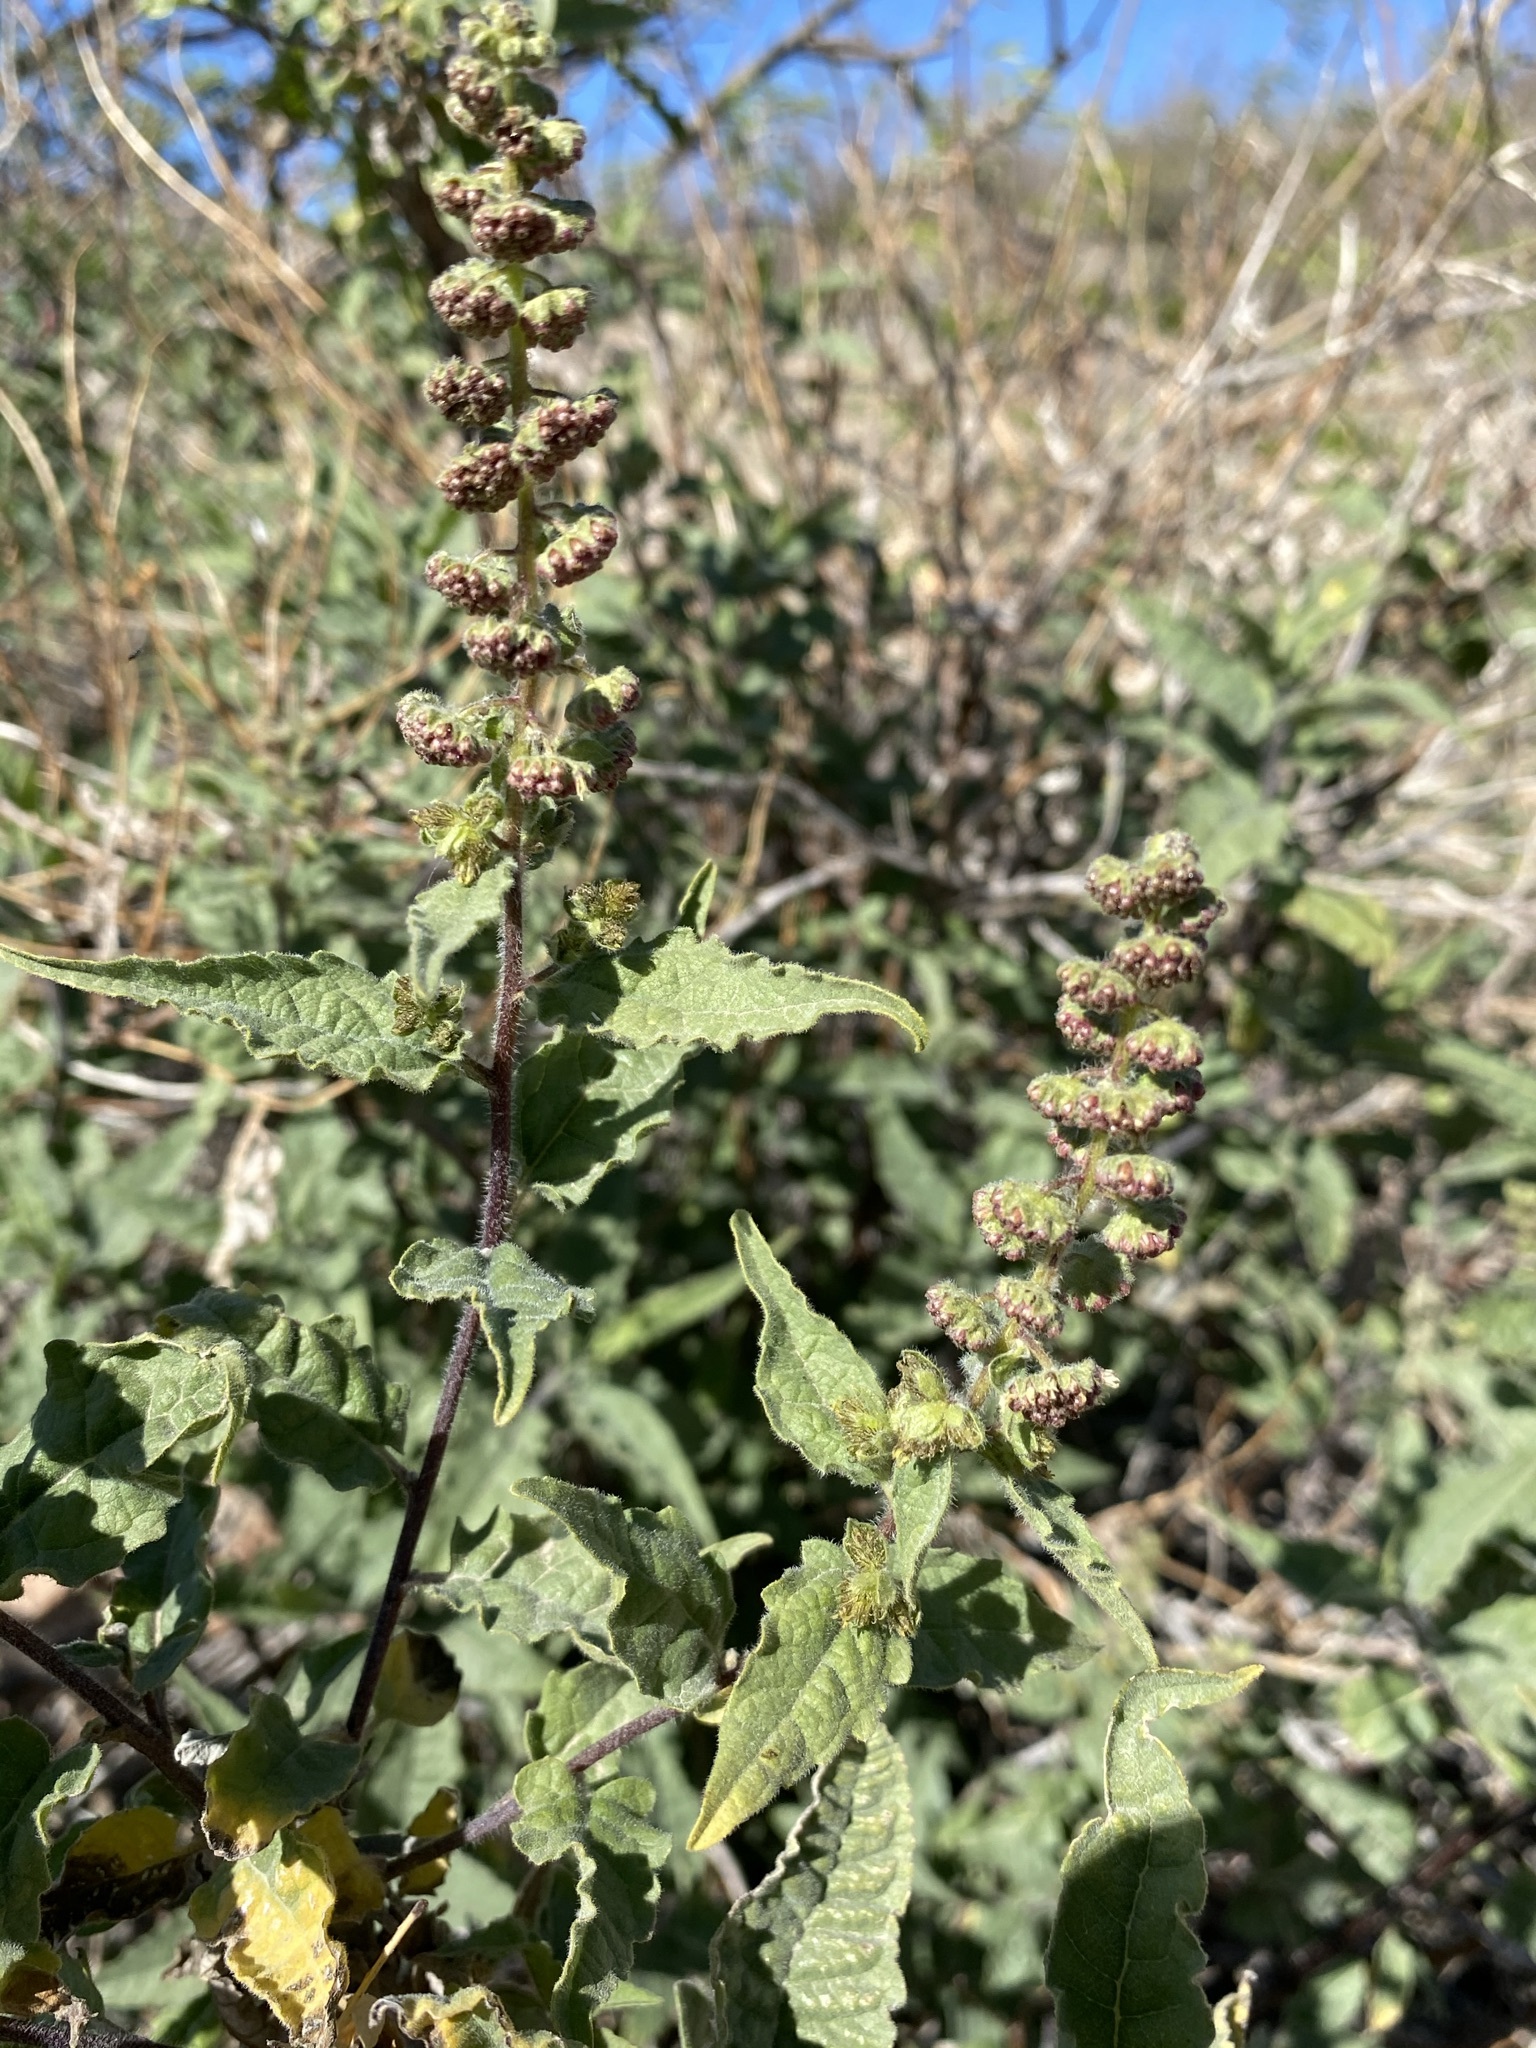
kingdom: Plantae
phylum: Tracheophyta
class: Magnoliopsida
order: Asterales
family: Asteraceae
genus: Ambrosia
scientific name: Ambrosia ambrosioides
